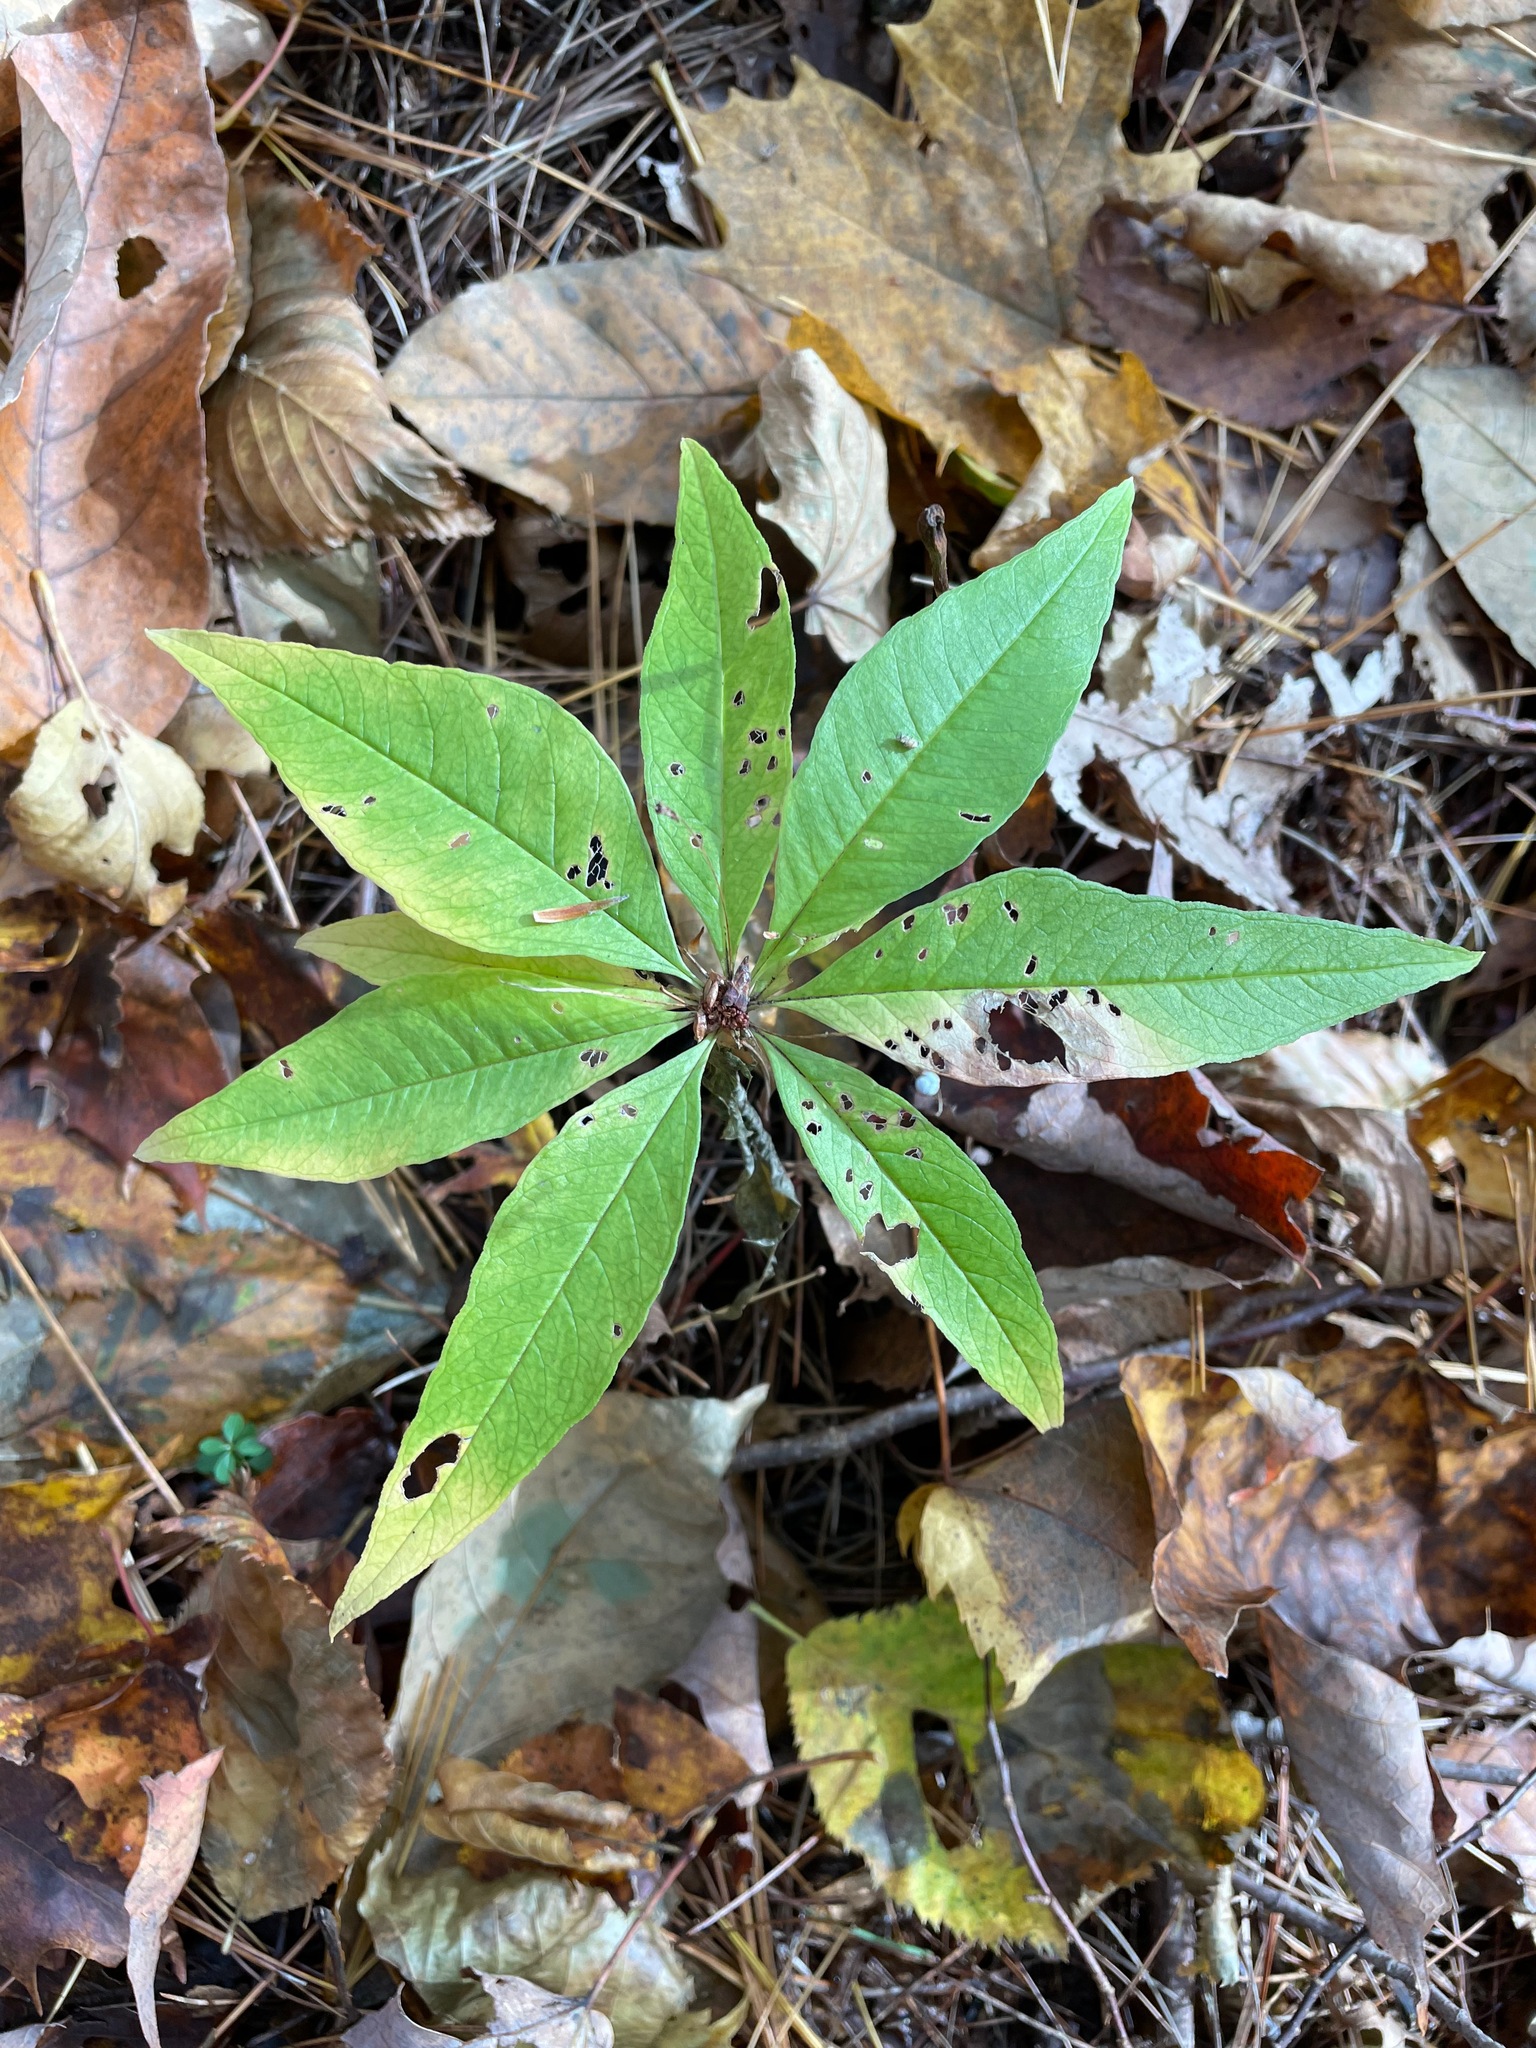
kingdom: Plantae
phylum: Tracheophyta
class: Magnoliopsida
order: Ericales
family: Primulaceae
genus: Lysimachia
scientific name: Lysimachia borealis
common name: American starflower
